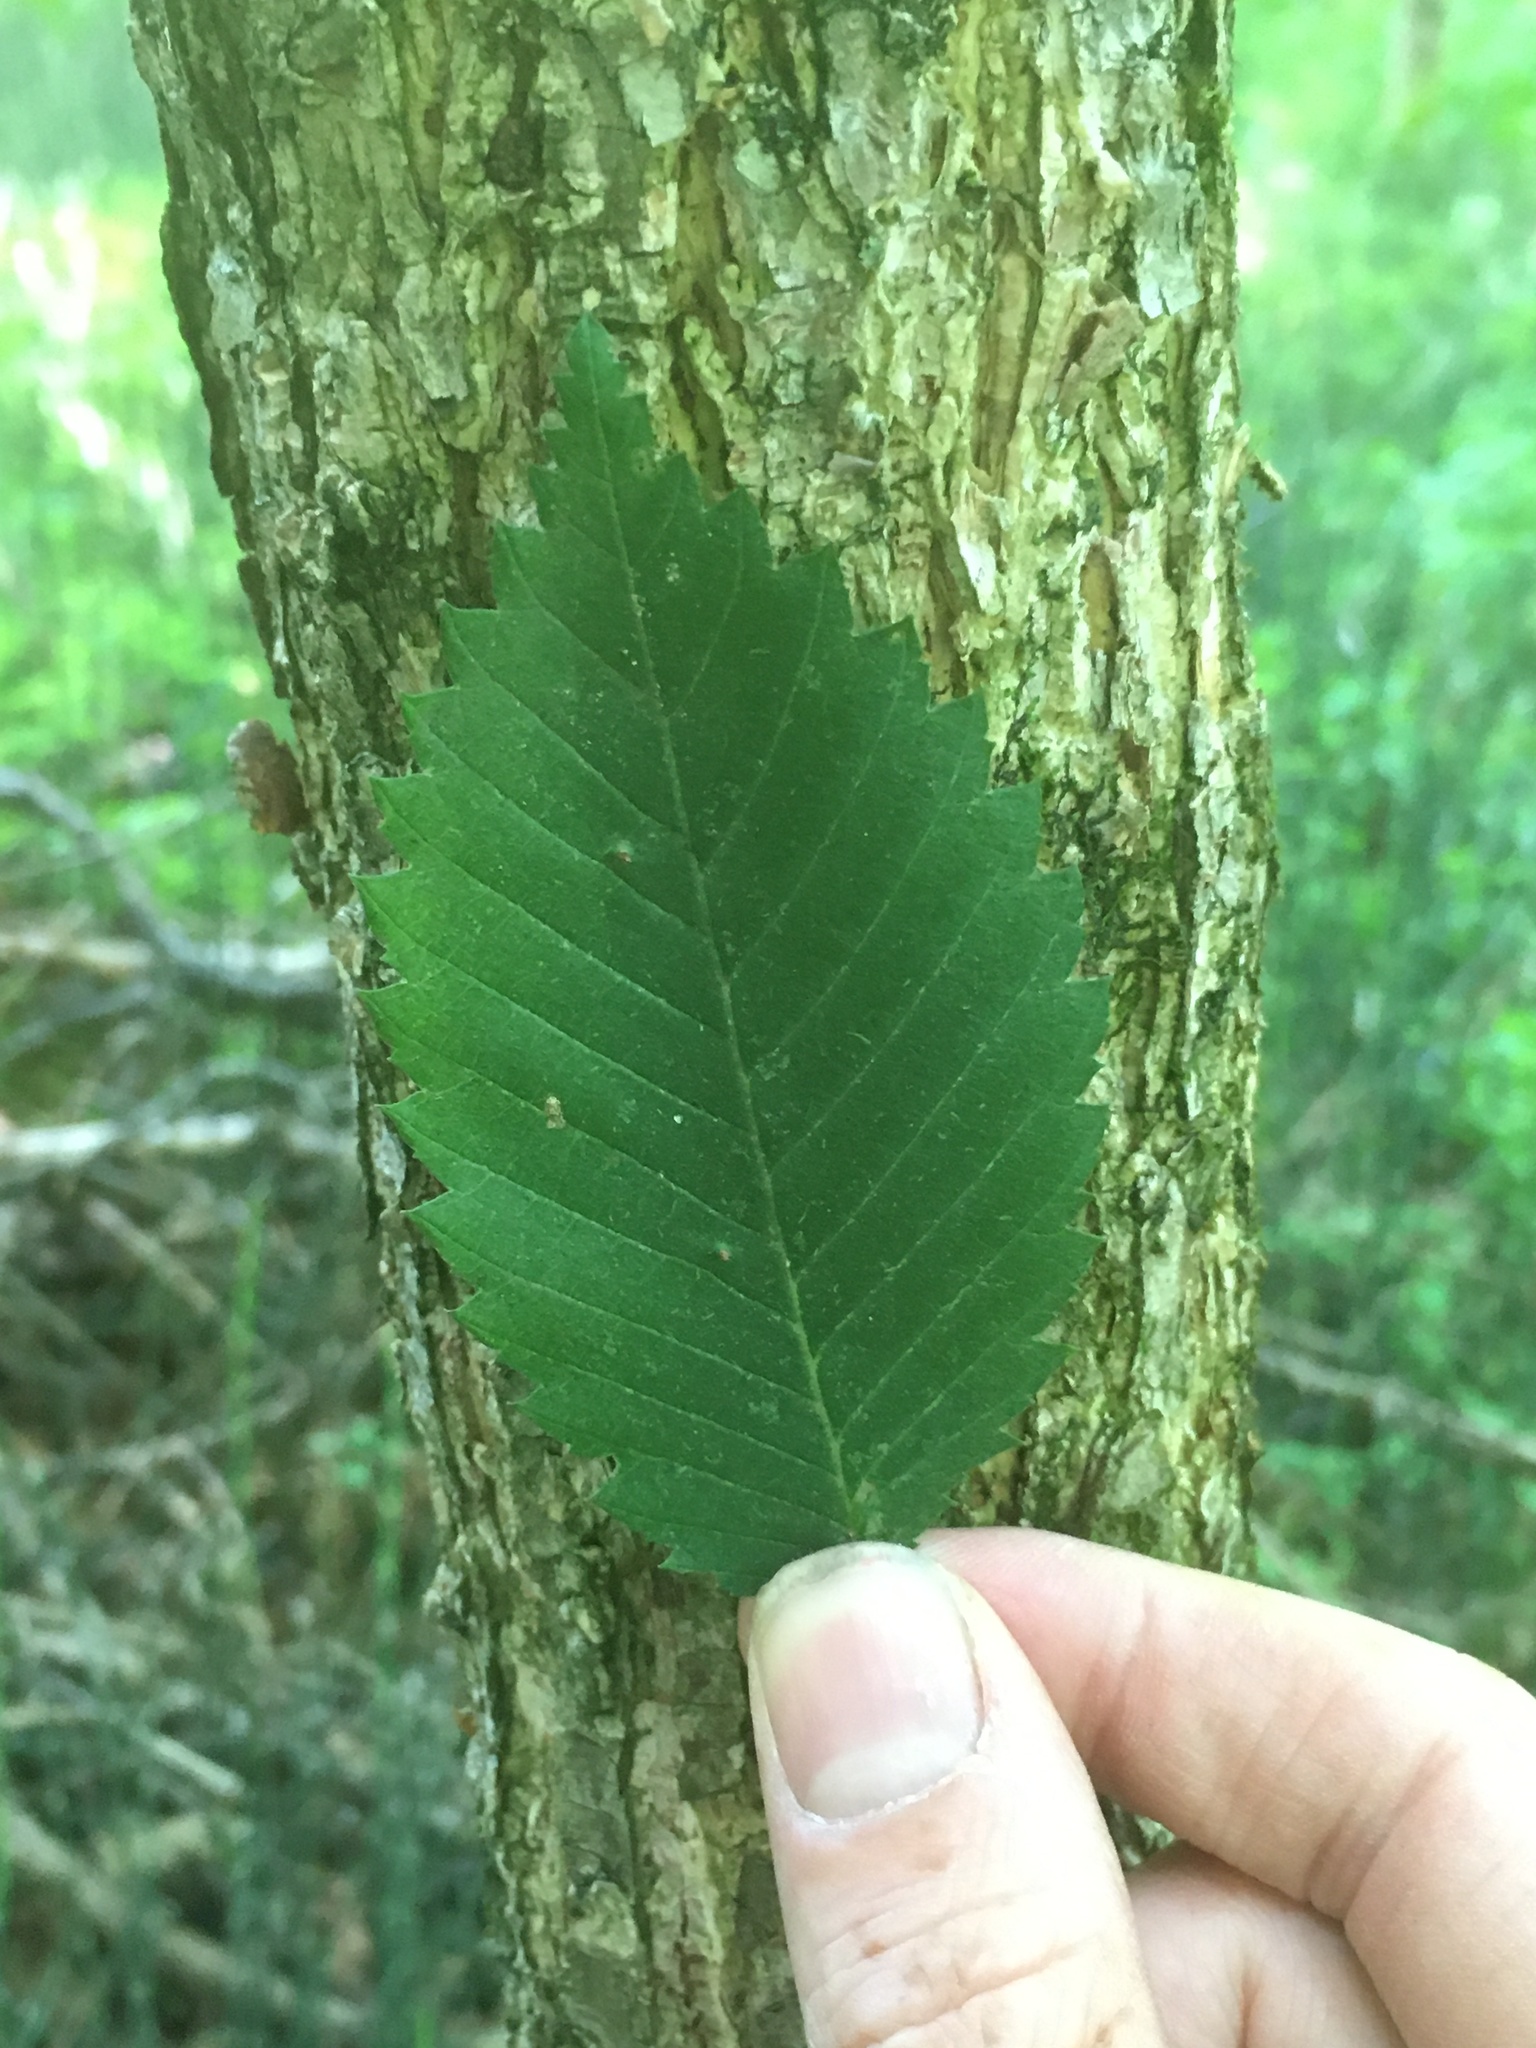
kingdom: Plantae
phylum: Tracheophyta
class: Magnoliopsida
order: Rosales
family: Ulmaceae
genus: Ulmus
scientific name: Ulmus americana
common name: American elm
